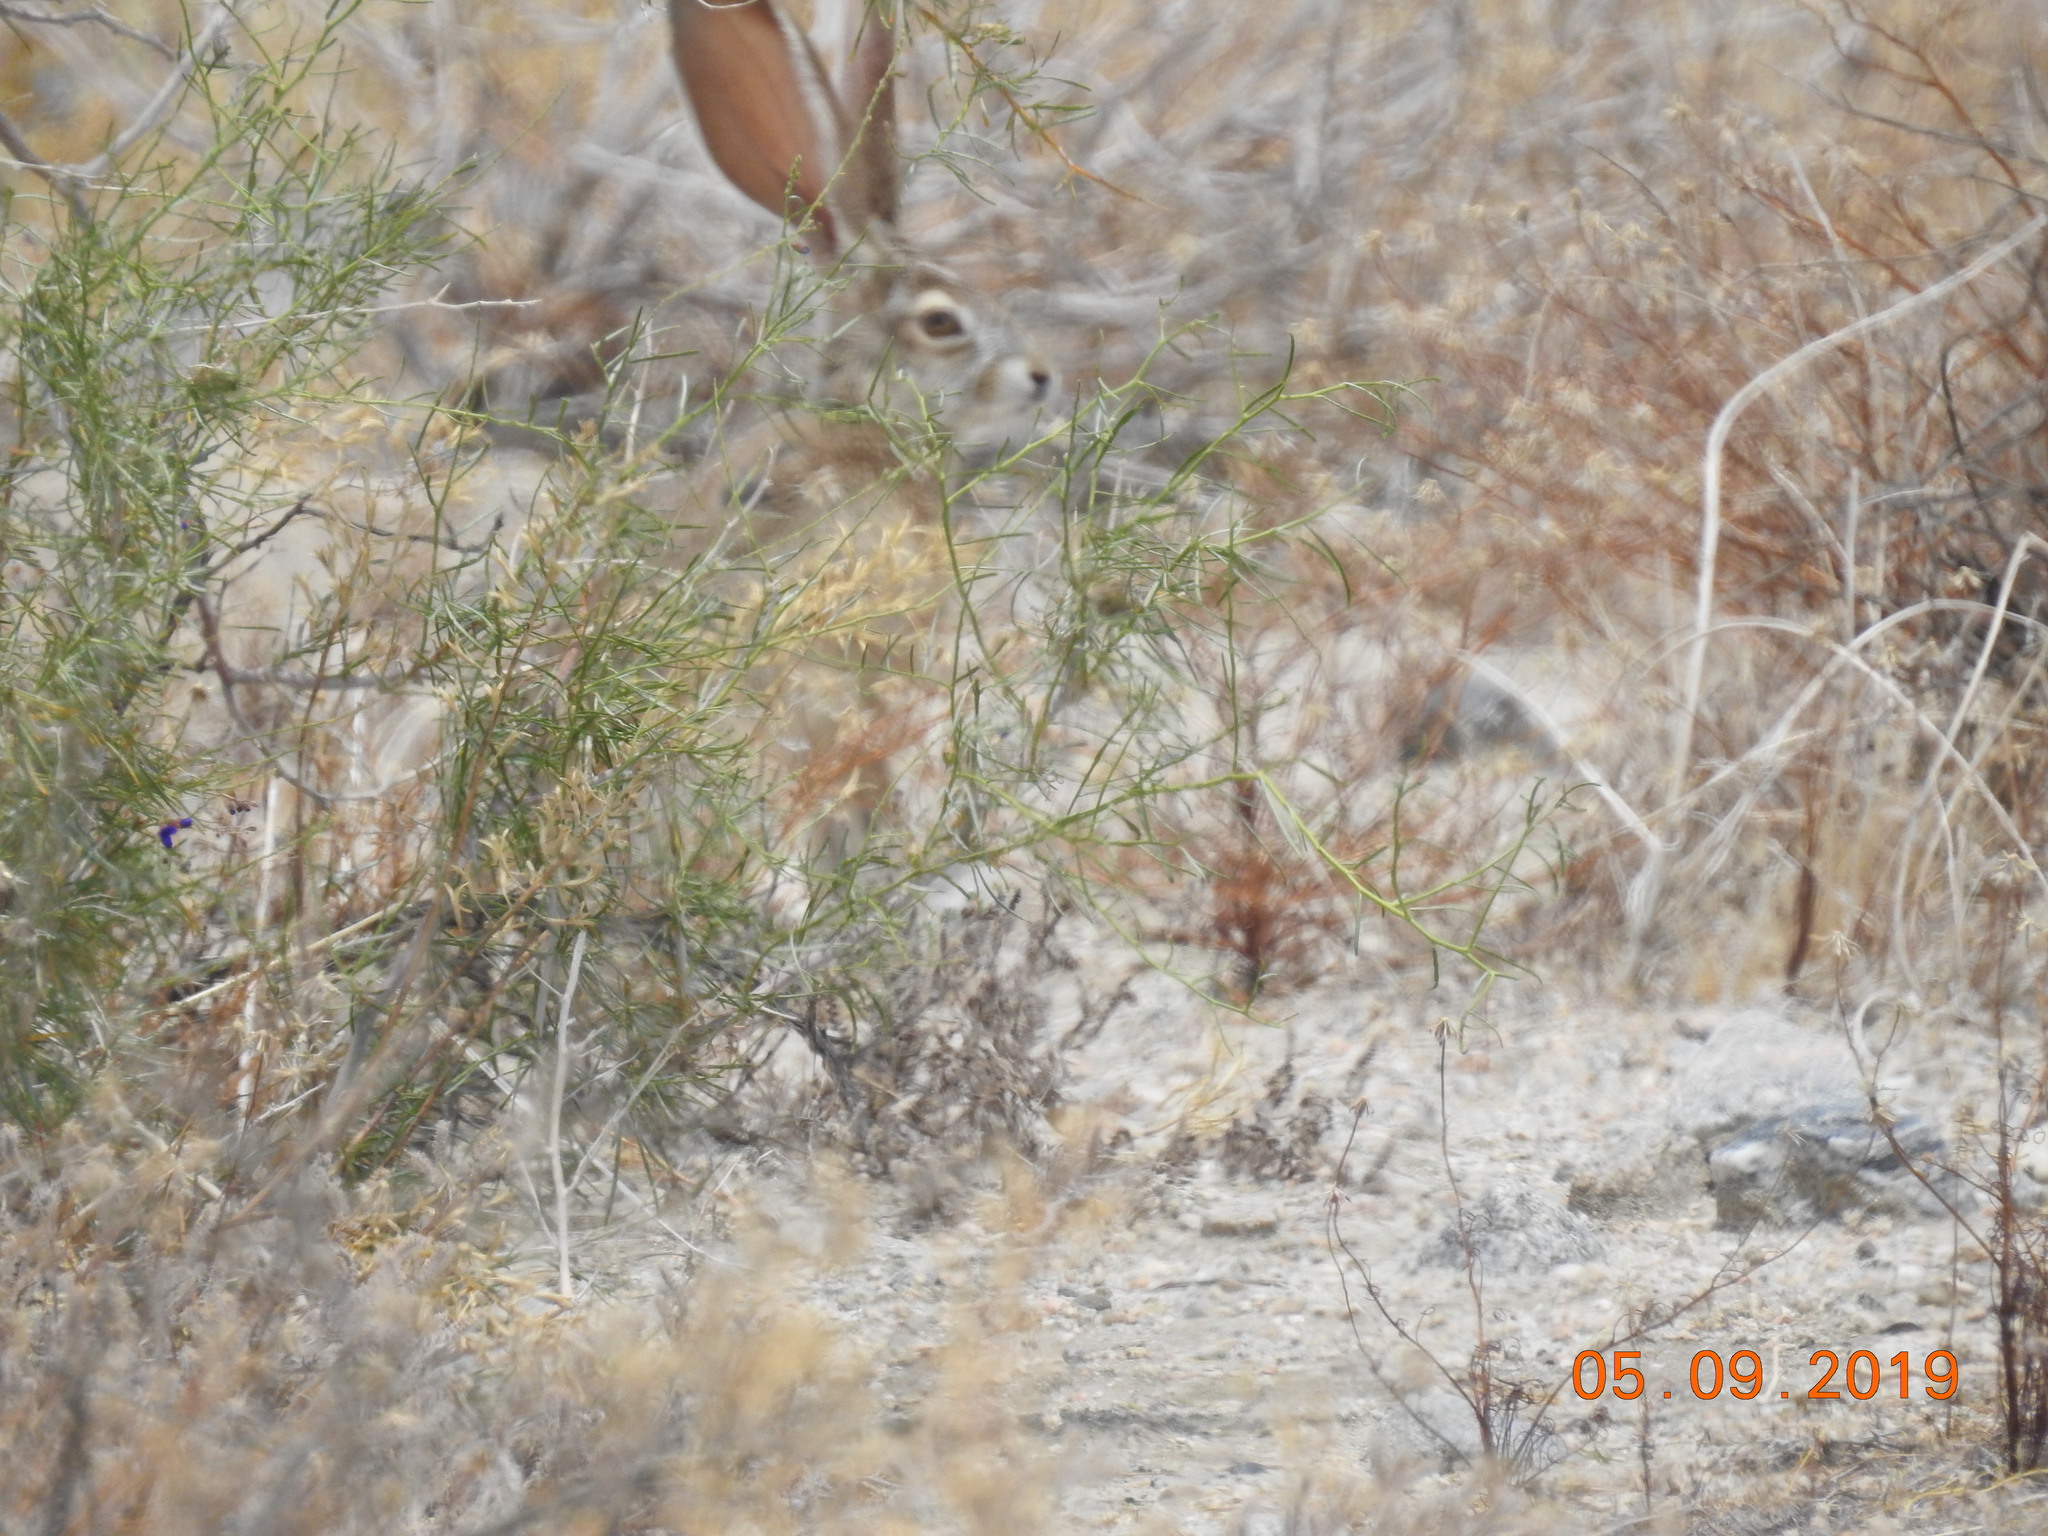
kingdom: Animalia
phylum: Chordata
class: Mammalia
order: Lagomorpha
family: Leporidae
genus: Lepus
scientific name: Lepus californicus
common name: Black-tailed jackrabbit
